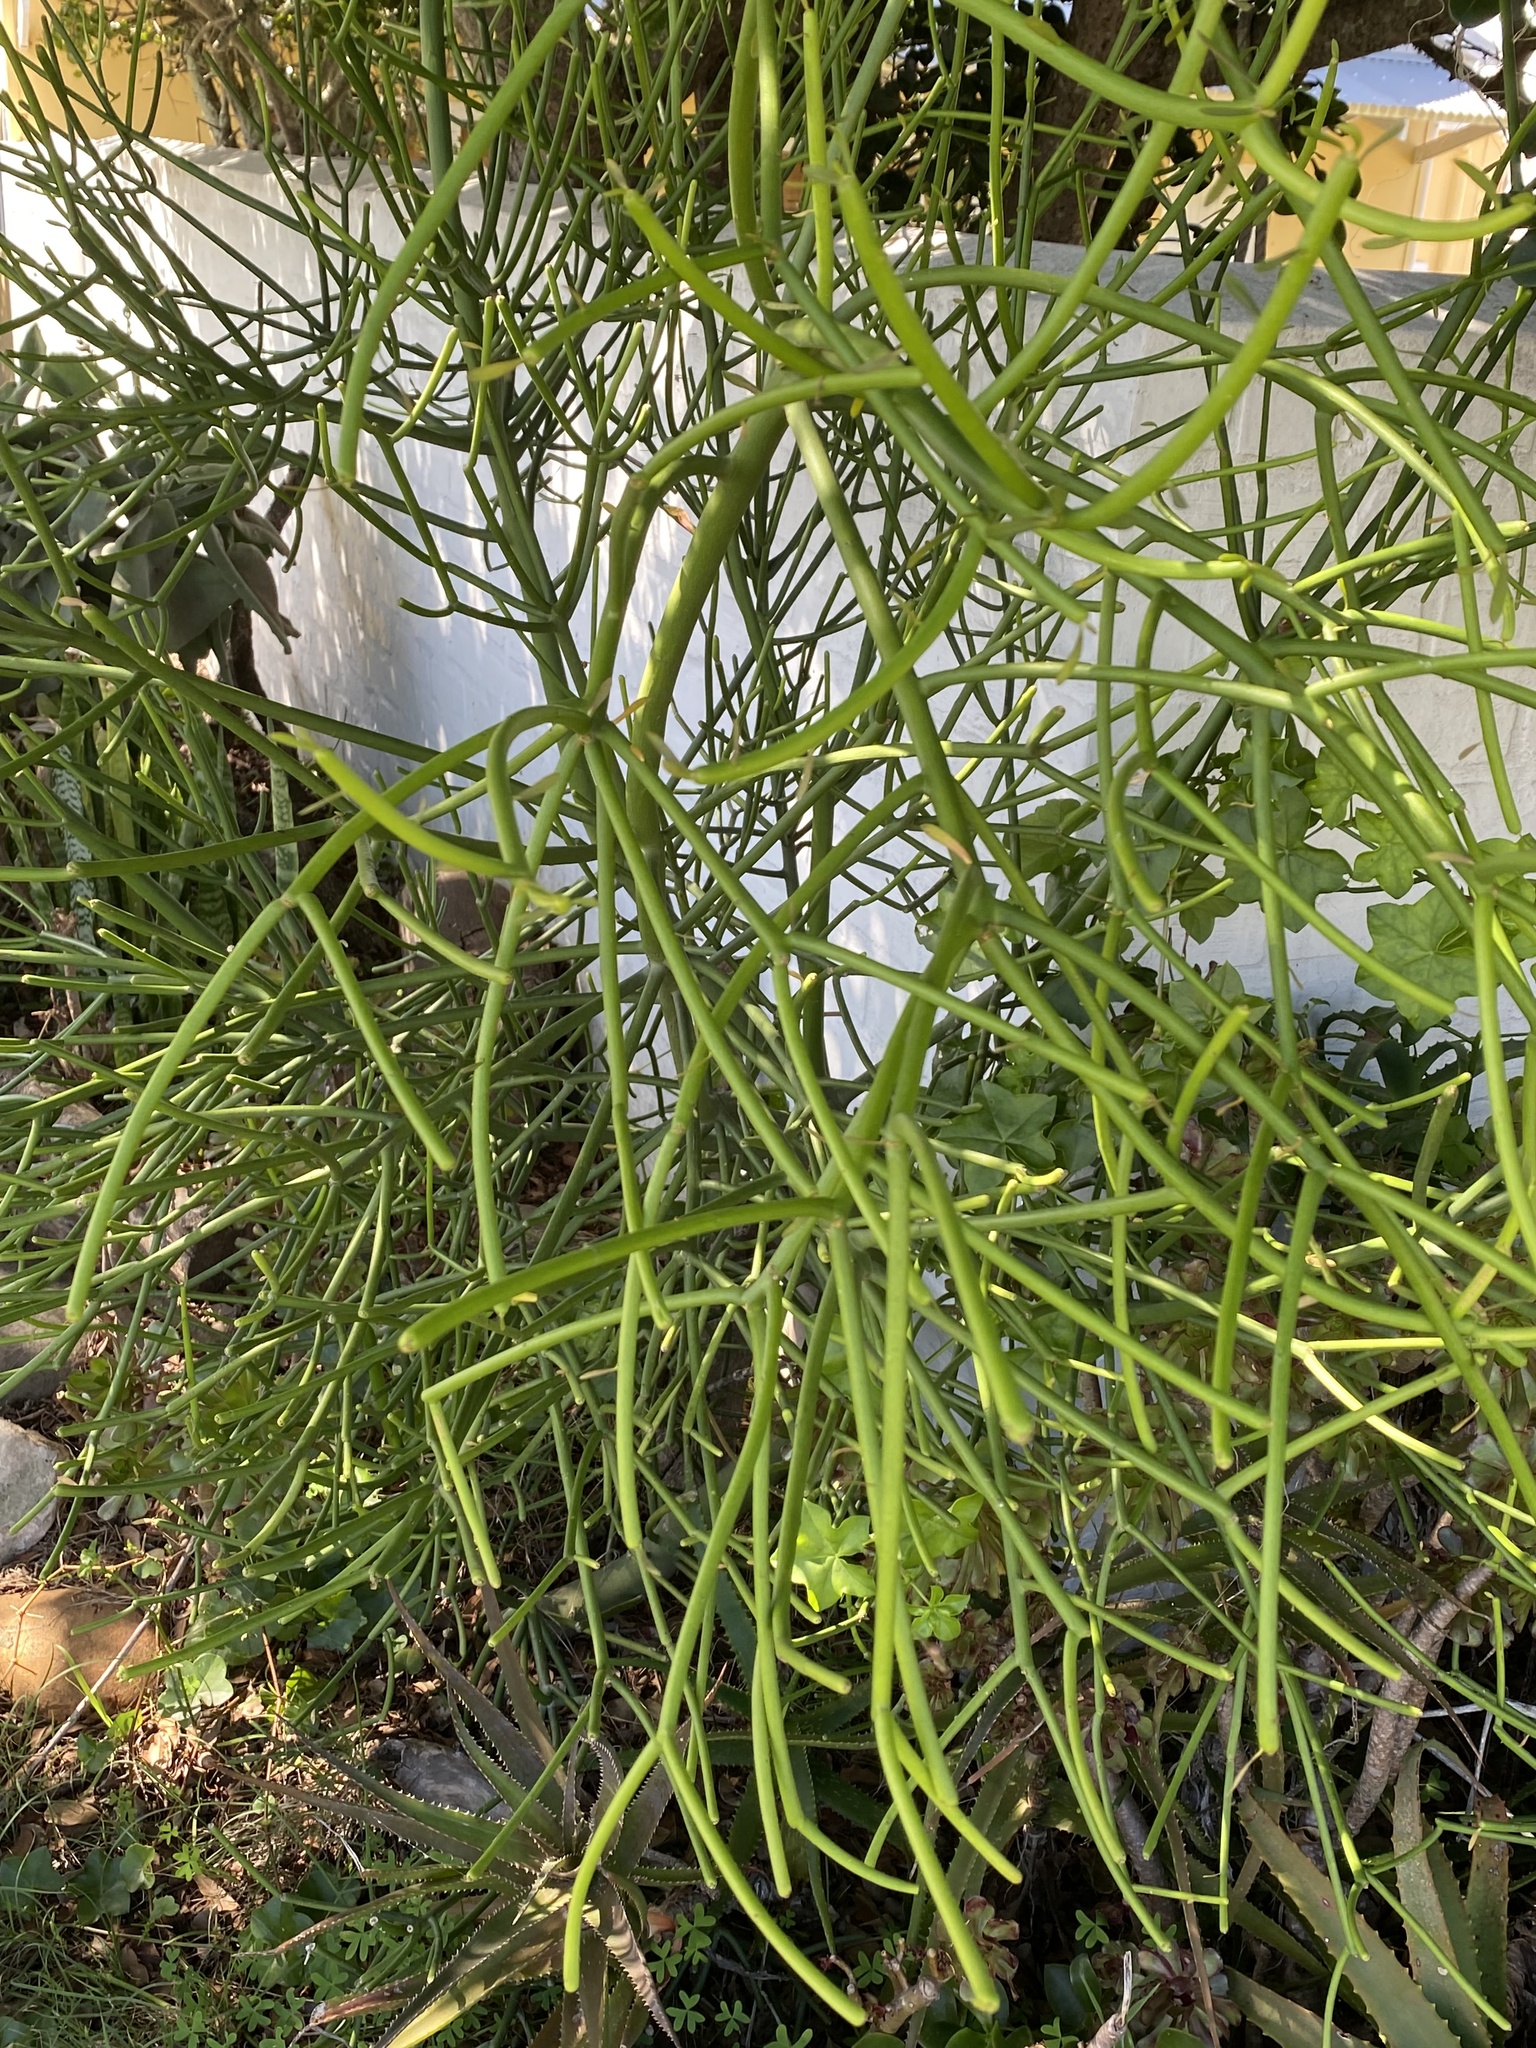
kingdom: Plantae
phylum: Tracheophyta
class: Magnoliopsida
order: Malpighiales
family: Euphorbiaceae
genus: Euphorbia
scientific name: Euphorbia tirucalli
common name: Indiantree spurge
